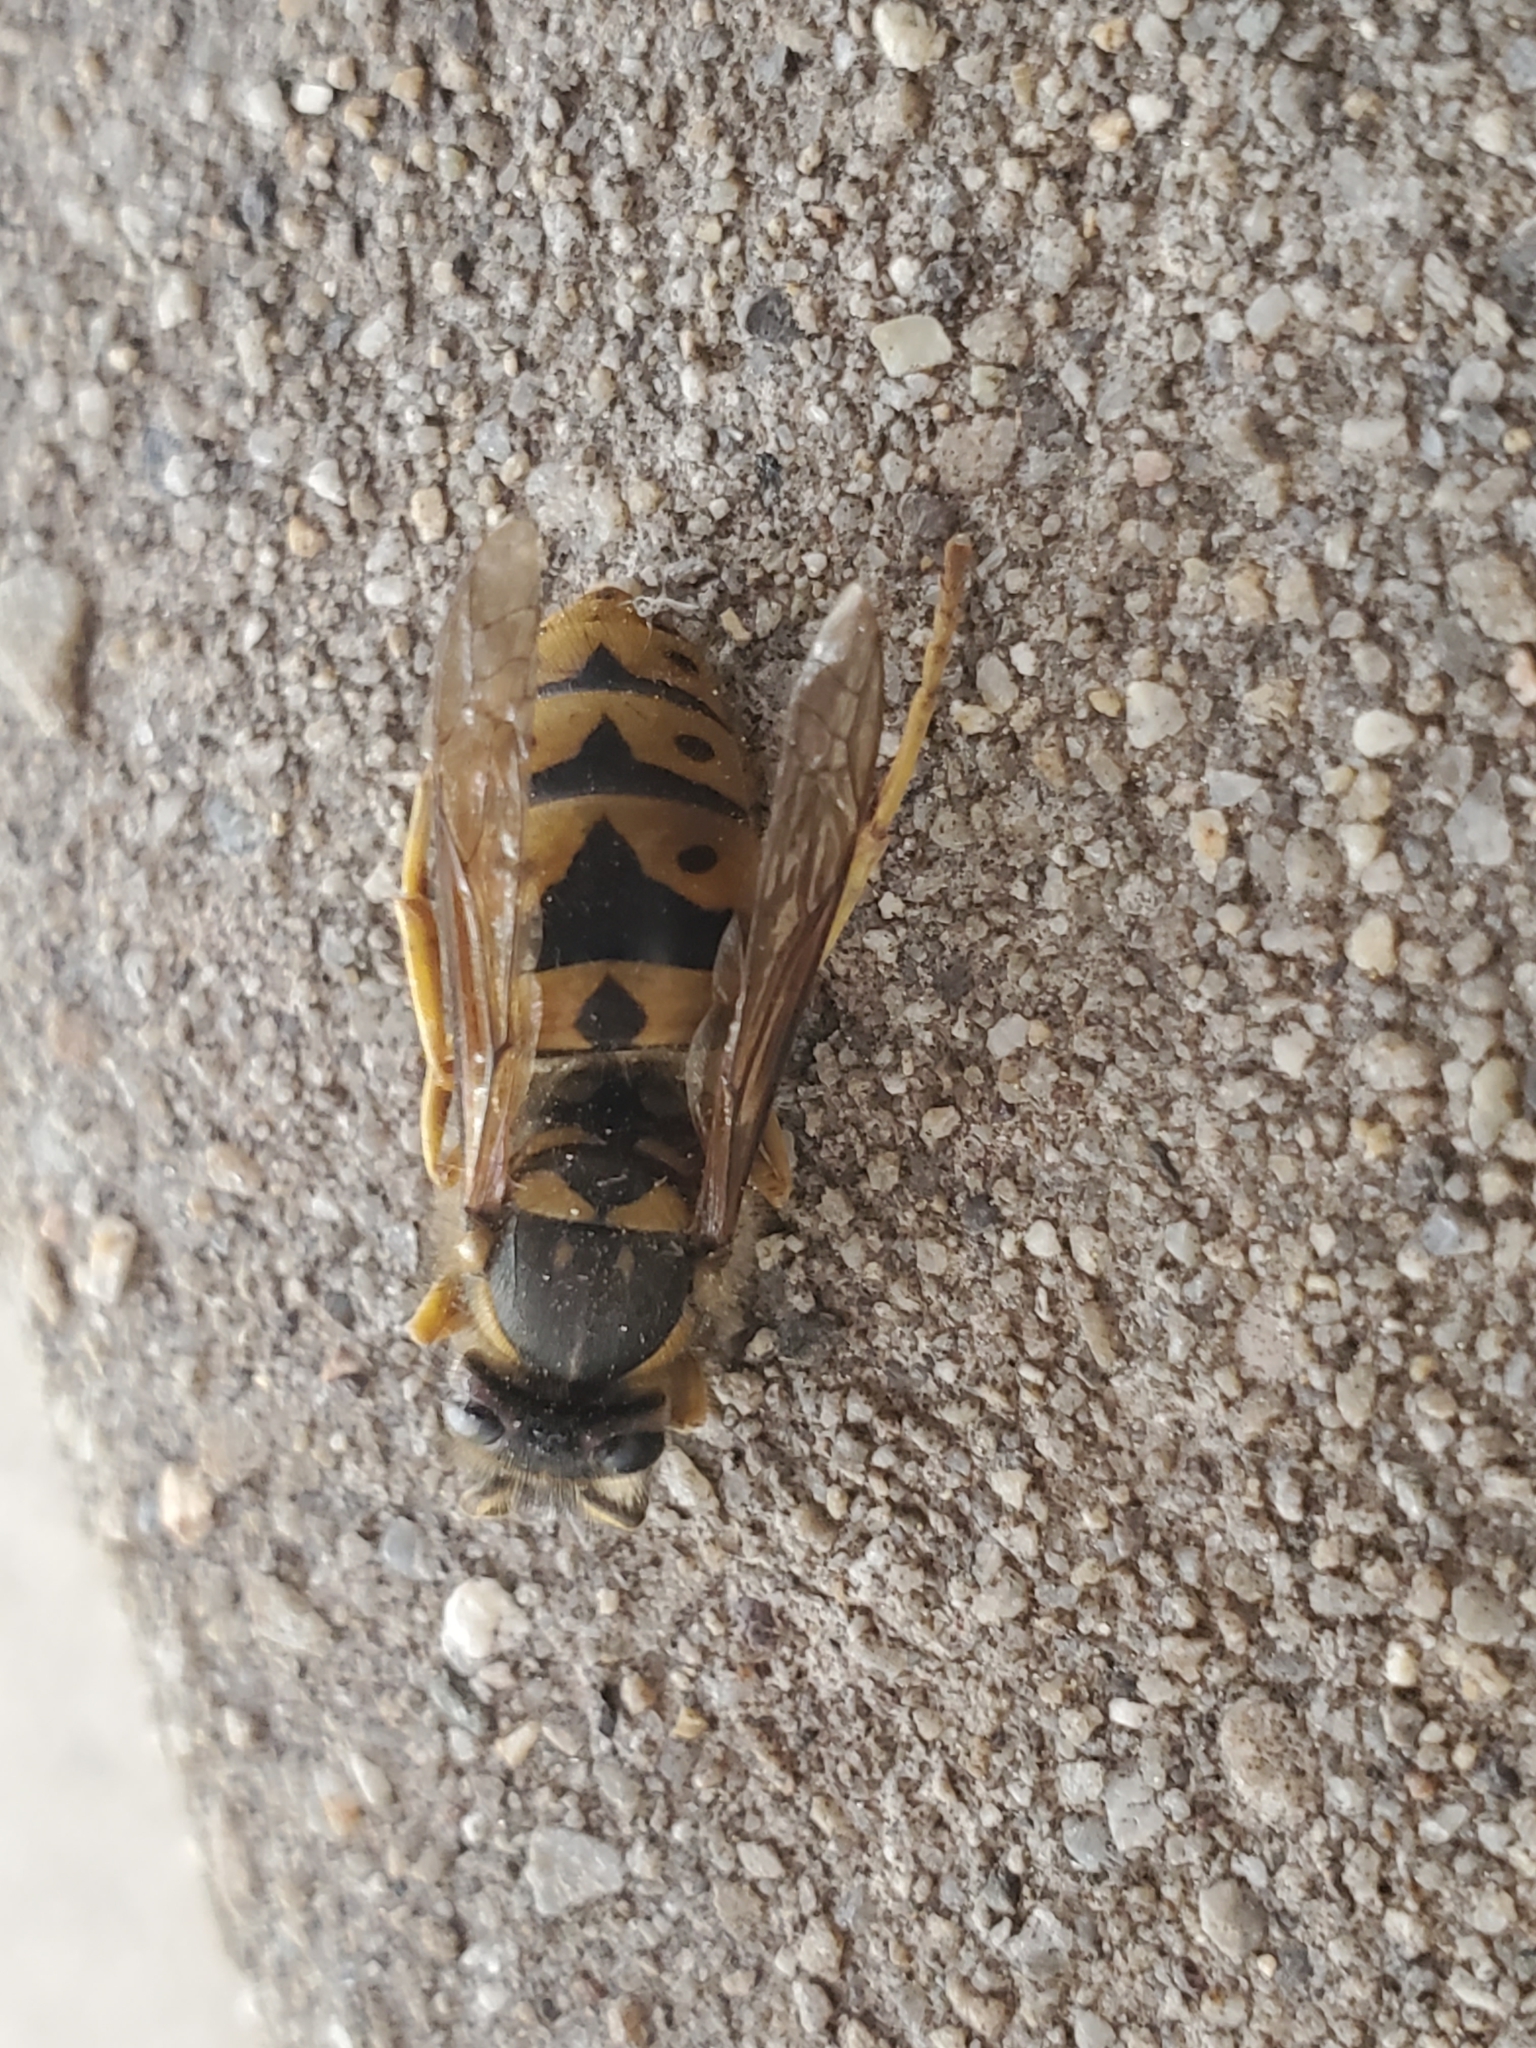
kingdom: Animalia
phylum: Arthropoda
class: Insecta
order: Hymenoptera
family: Vespidae
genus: Vespula
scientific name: Vespula pensylvanica
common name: Western yellowjacket
